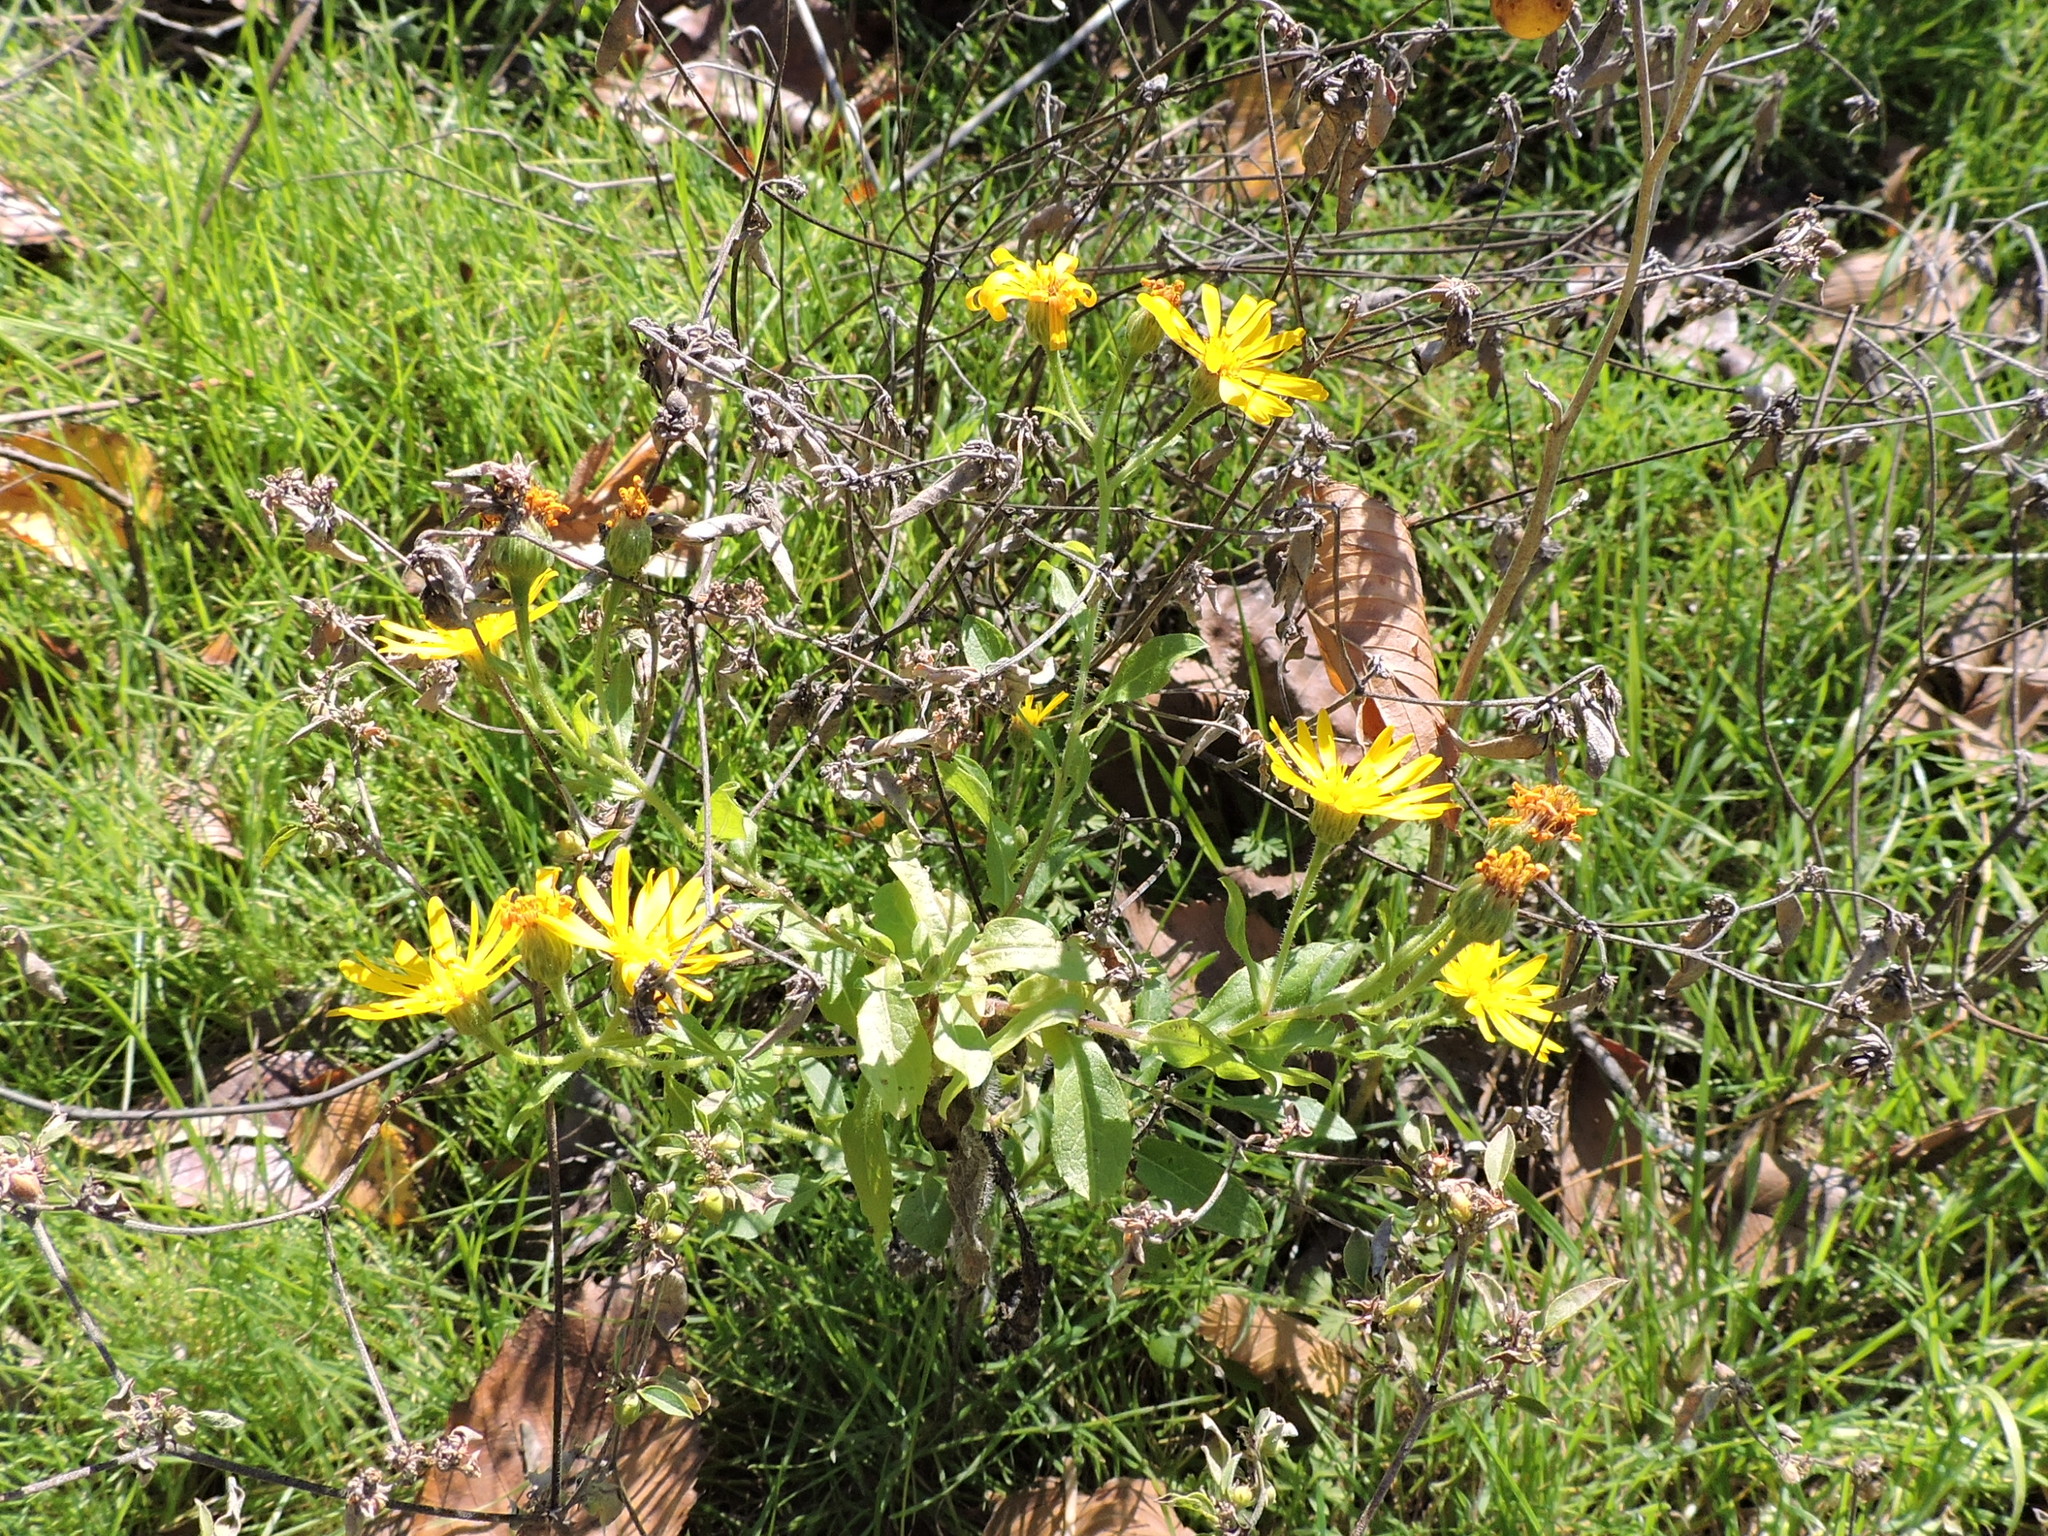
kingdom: Plantae
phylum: Tracheophyta
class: Magnoliopsida
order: Asterales
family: Asteraceae
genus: Heterotheca
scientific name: Heterotheca subaxillaris
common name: Camphorweed
